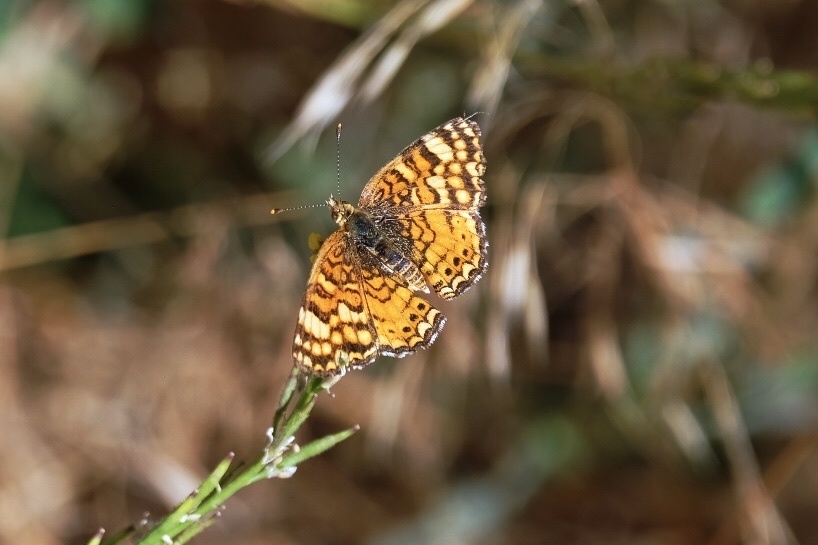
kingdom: Animalia
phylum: Arthropoda
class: Insecta
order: Lepidoptera
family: Nymphalidae
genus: Eresia
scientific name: Eresia aveyrona
